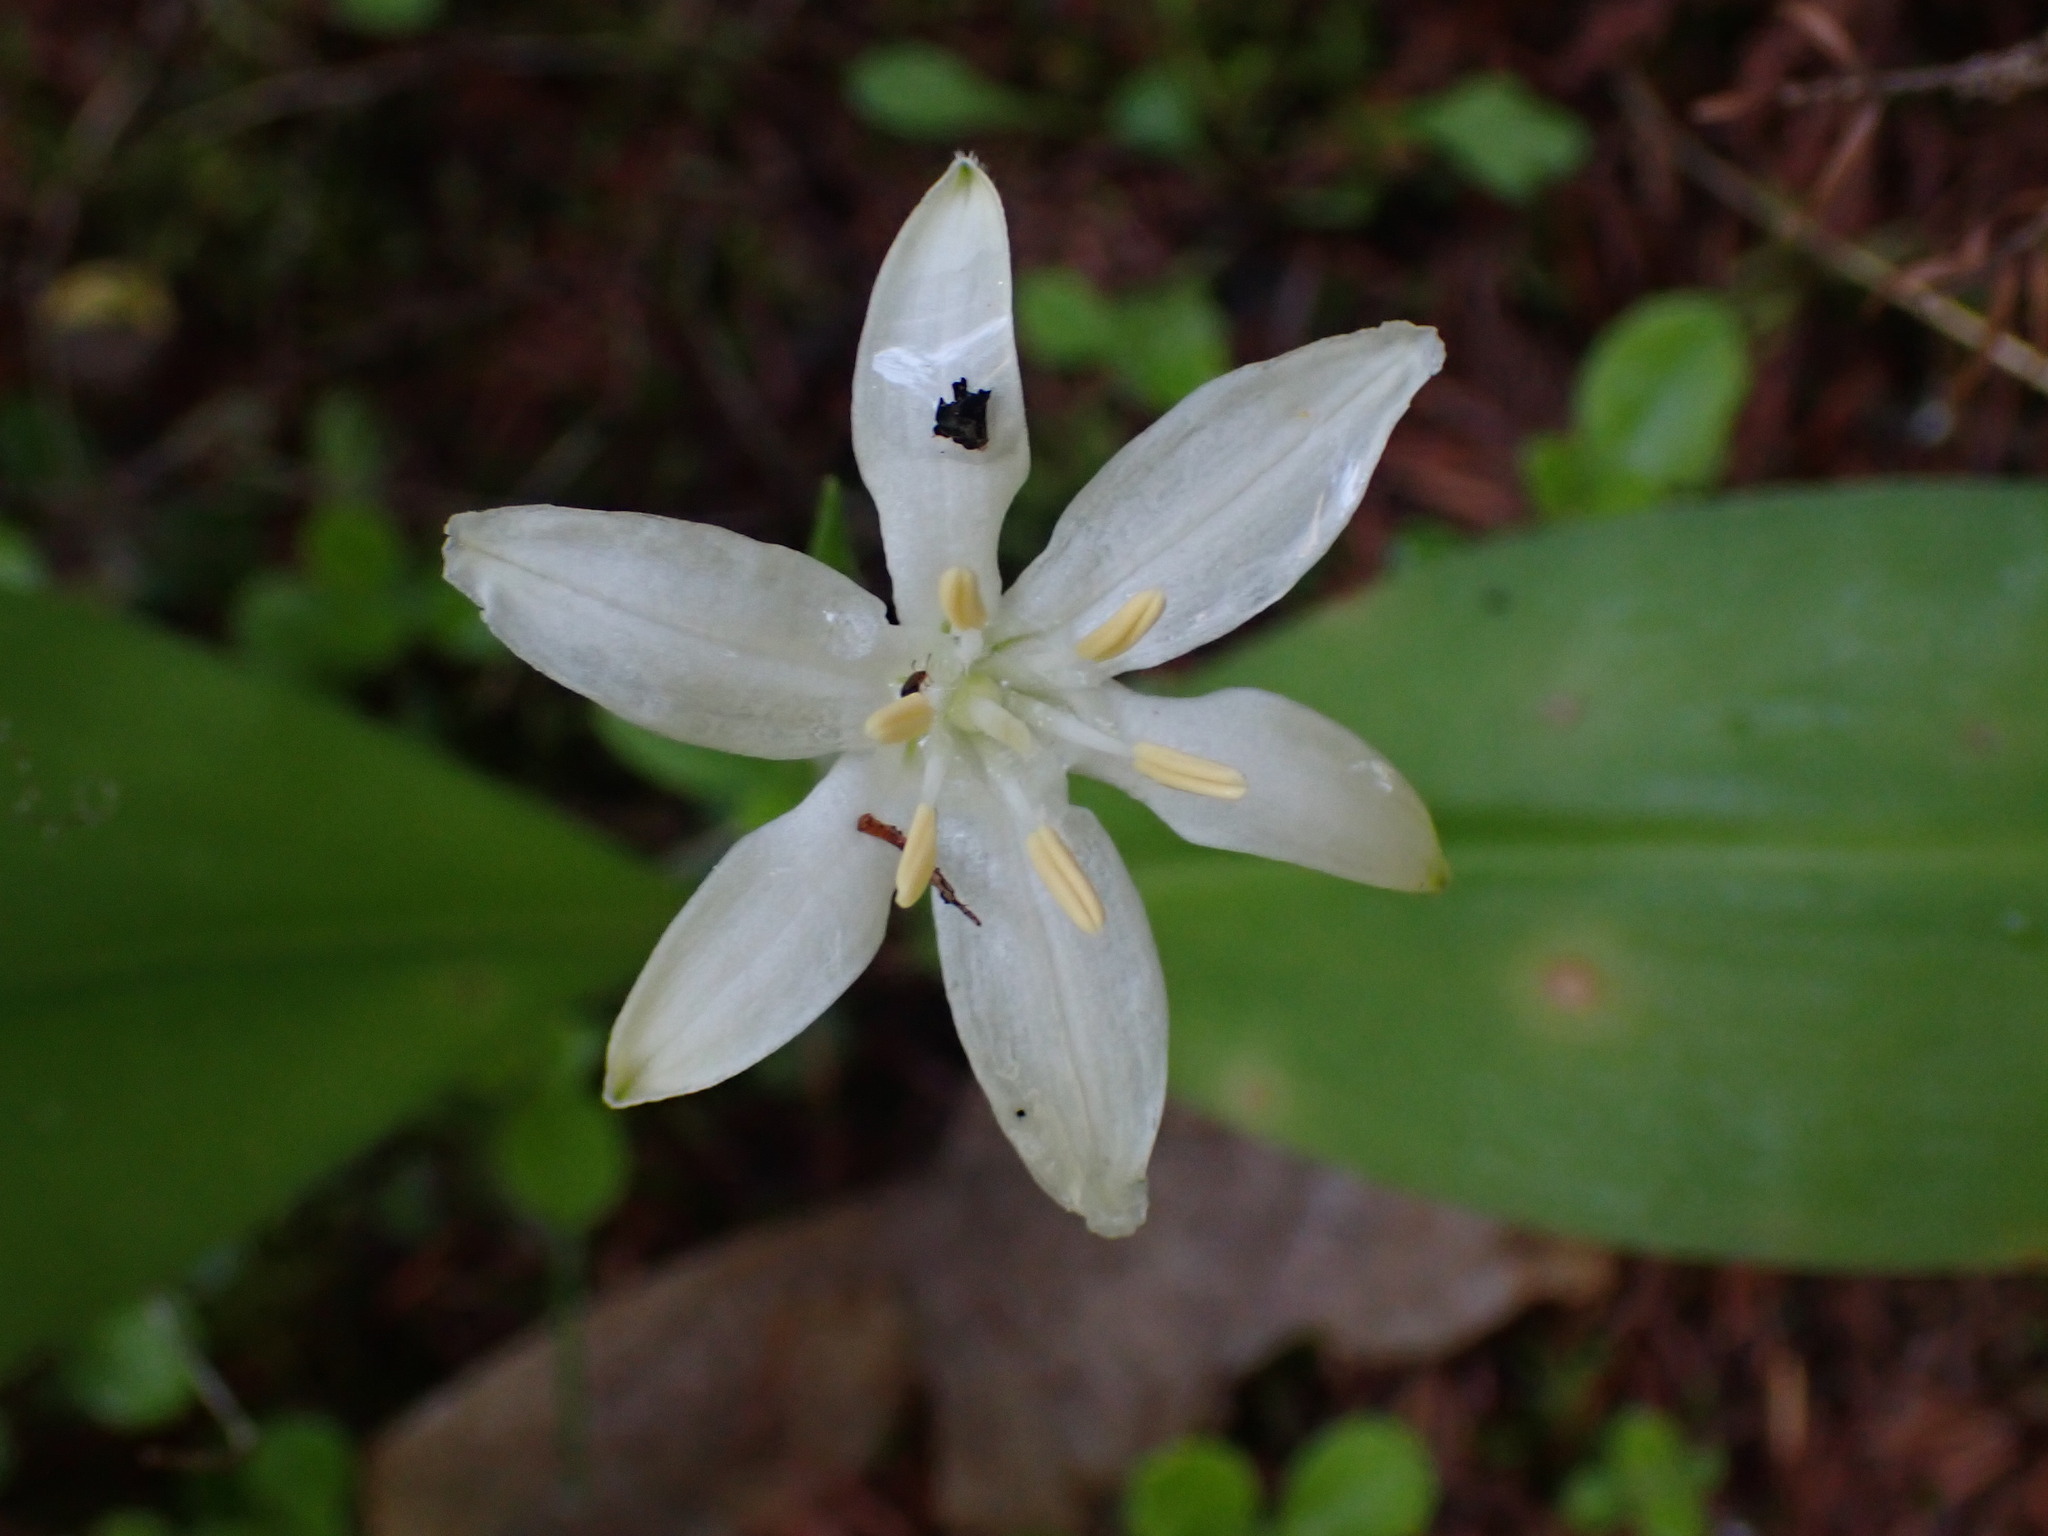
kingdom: Plantae
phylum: Tracheophyta
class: Liliopsida
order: Liliales
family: Liliaceae
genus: Clintonia
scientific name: Clintonia uniflora
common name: Queen's cup
